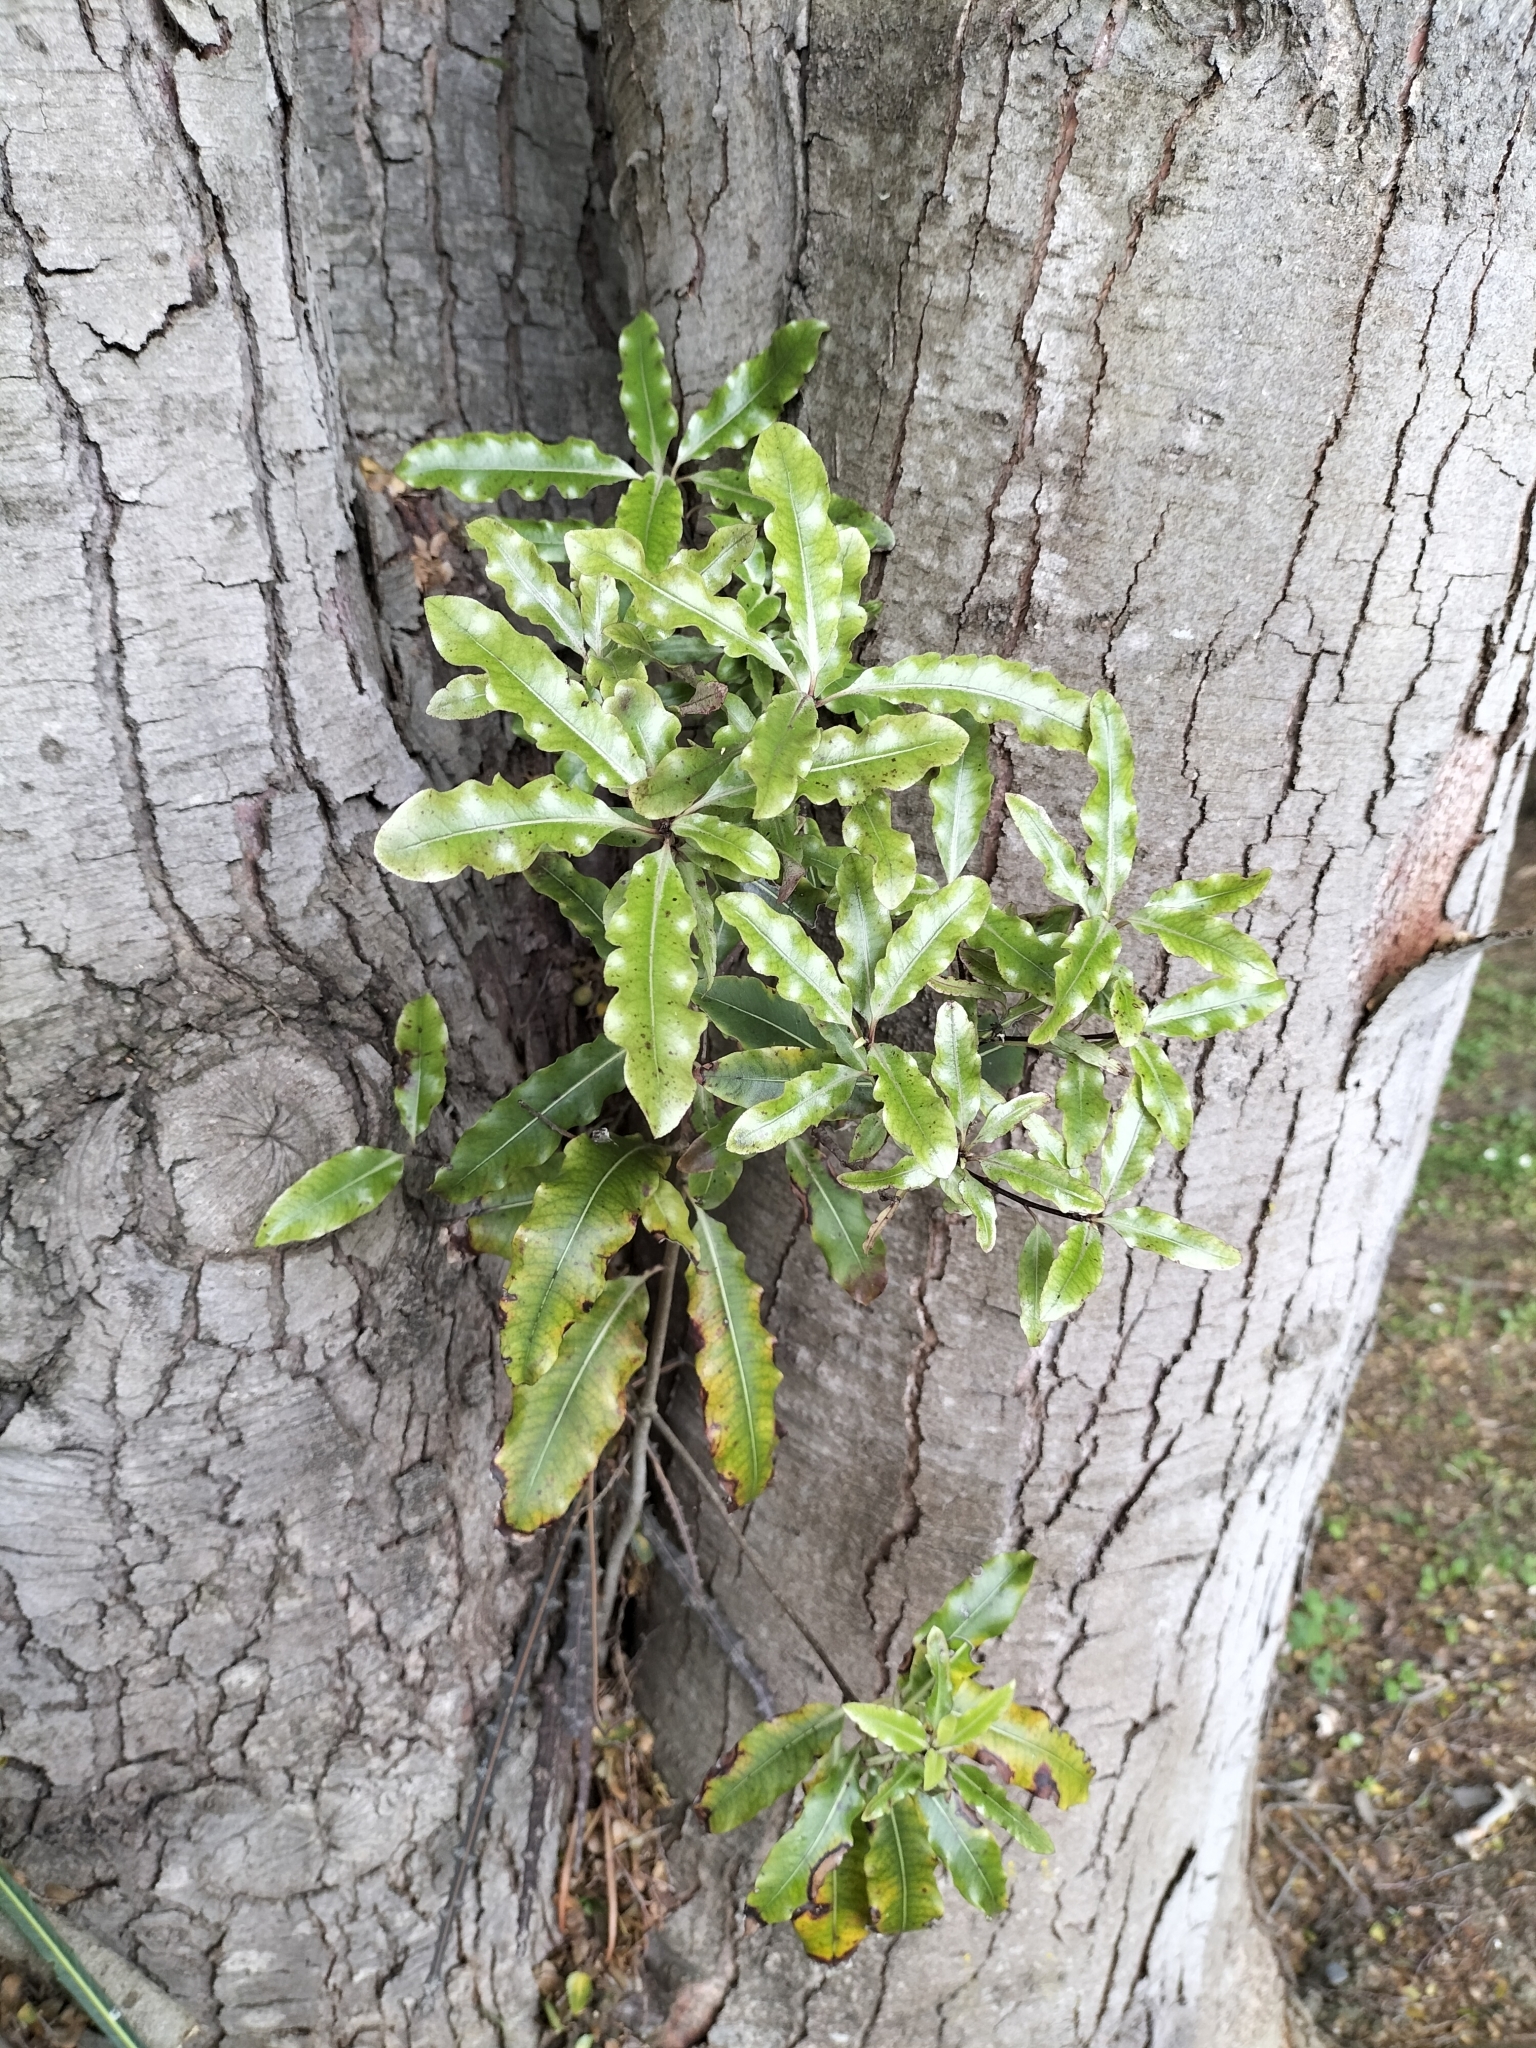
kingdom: Plantae
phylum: Tracheophyta
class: Magnoliopsida
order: Apiales
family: Pittosporaceae
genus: Pittosporum
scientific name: Pittosporum eugenioides
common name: Lemonwood
